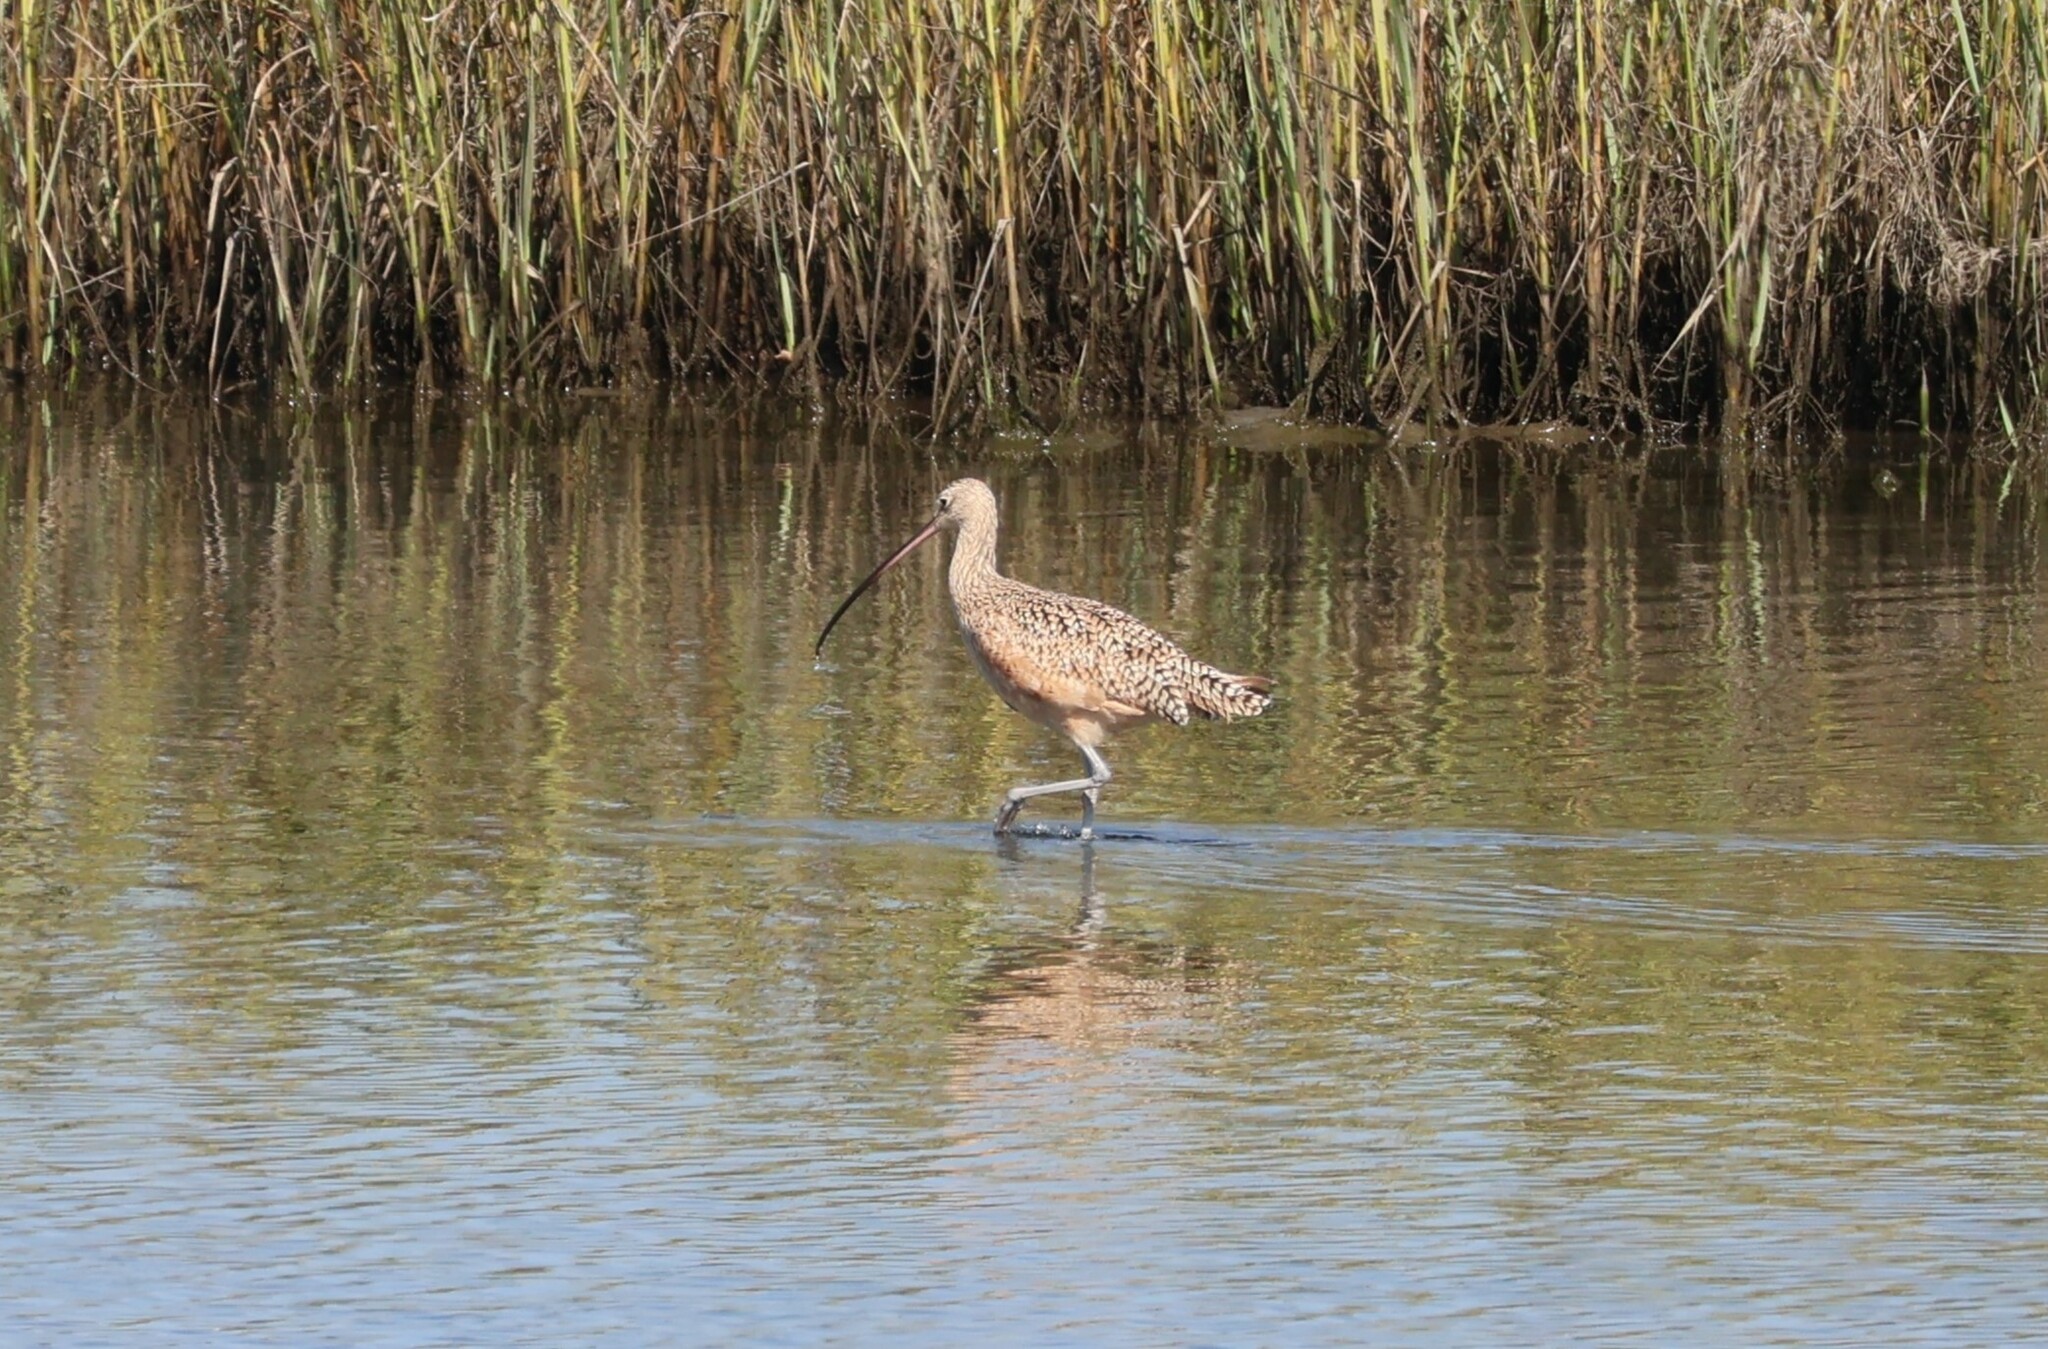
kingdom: Animalia
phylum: Chordata
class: Aves
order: Charadriiformes
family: Scolopacidae
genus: Numenius
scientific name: Numenius americanus
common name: Long-billed curlew
